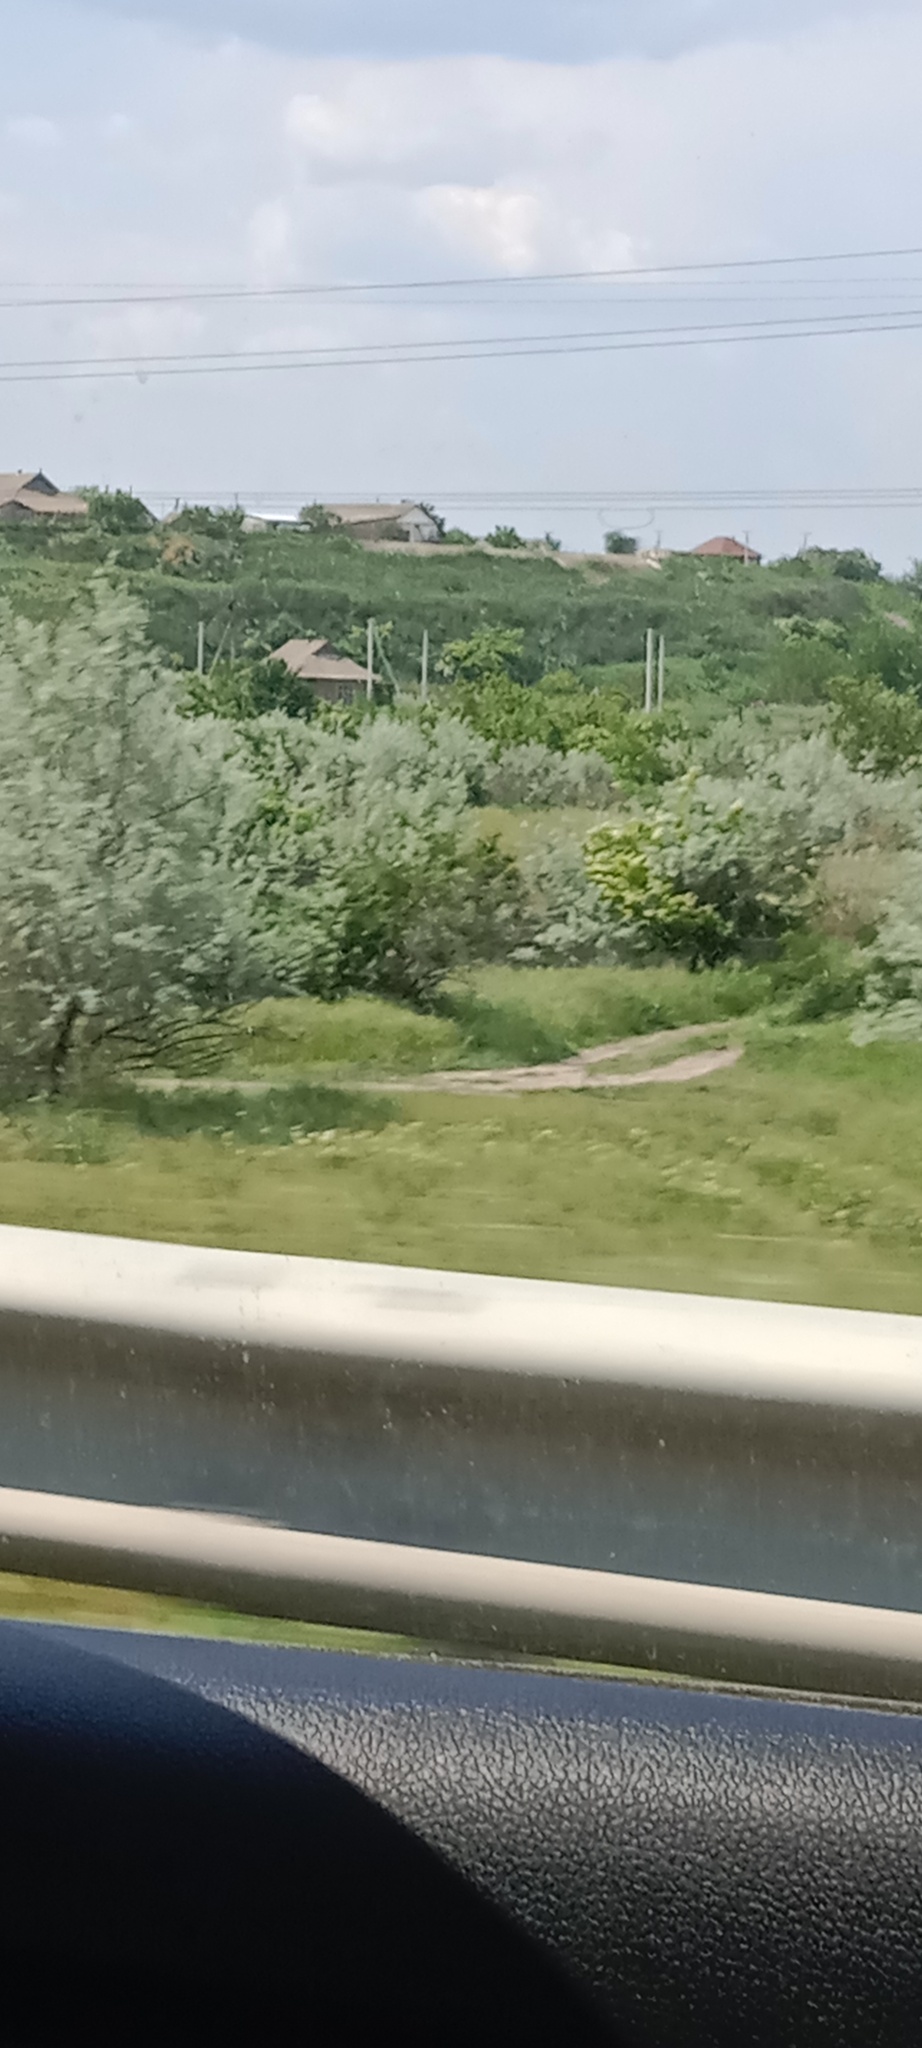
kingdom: Plantae
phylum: Tracheophyta
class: Magnoliopsida
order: Rosales
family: Elaeagnaceae
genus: Elaeagnus
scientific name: Elaeagnus angustifolia
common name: Russian olive
